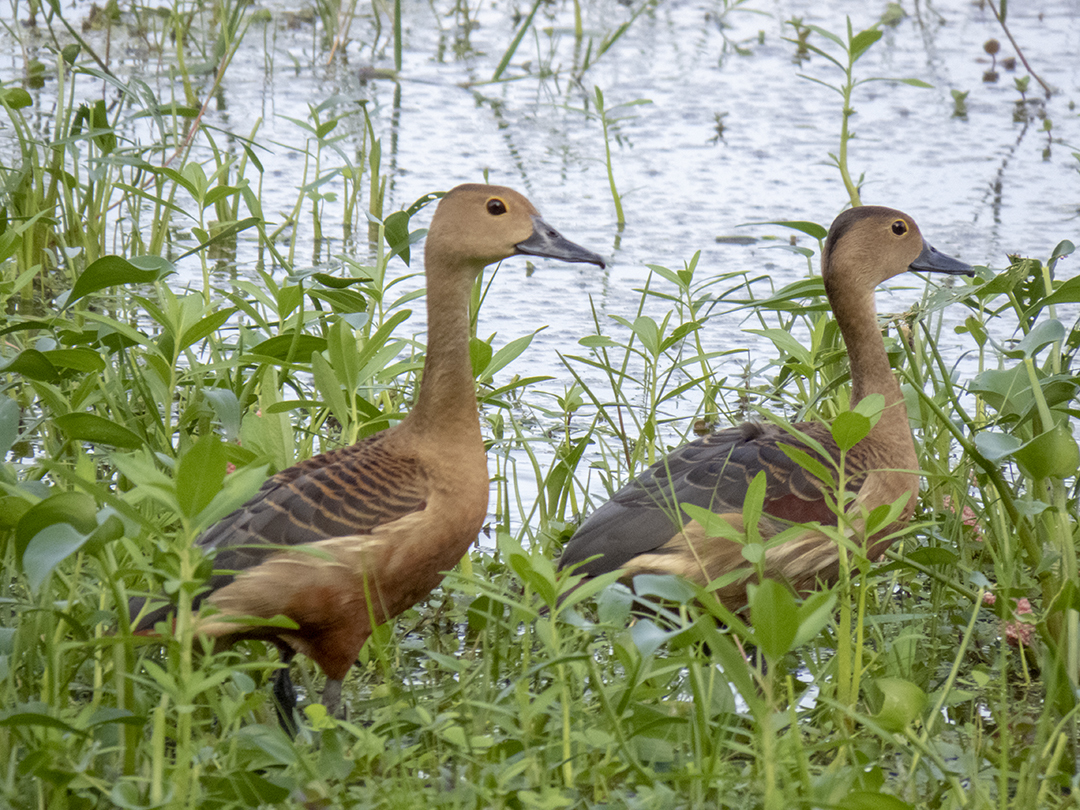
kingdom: Animalia
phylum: Chordata
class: Aves
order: Anseriformes
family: Anatidae
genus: Dendrocygna
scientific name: Dendrocygna javanica
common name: Lesser whistling-duck
